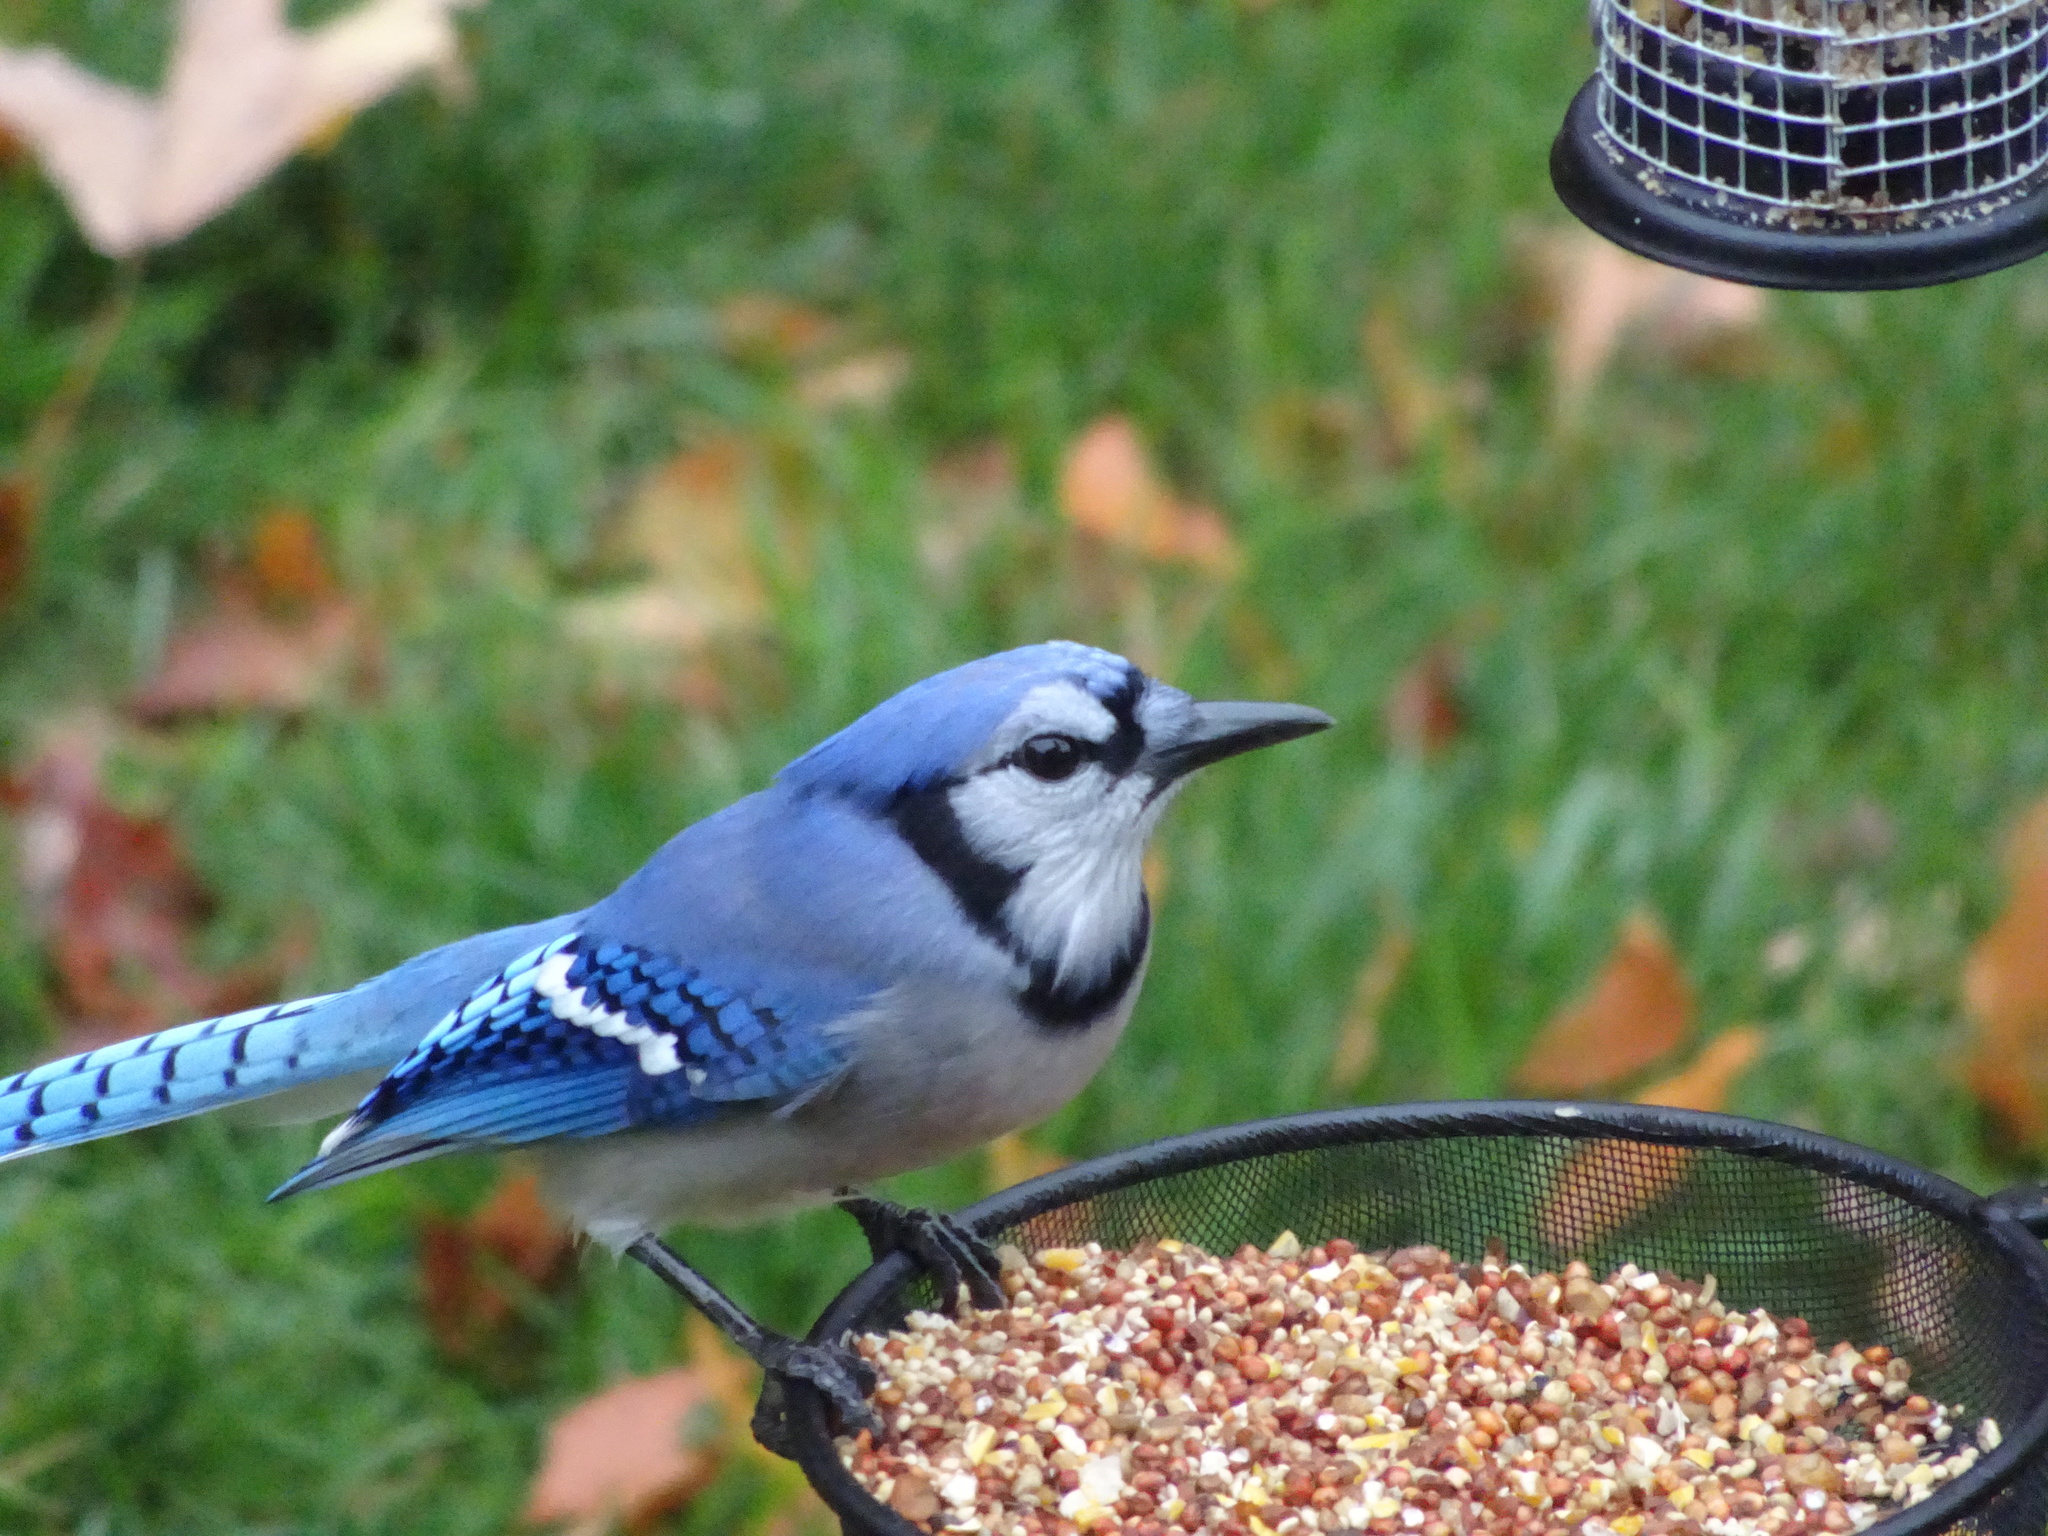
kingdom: Animalia
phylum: Chordata
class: Aves
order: Passeriformes
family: Corvidae
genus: Cyanocitta
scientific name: Cyanocitta cristata
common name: Blue jay
